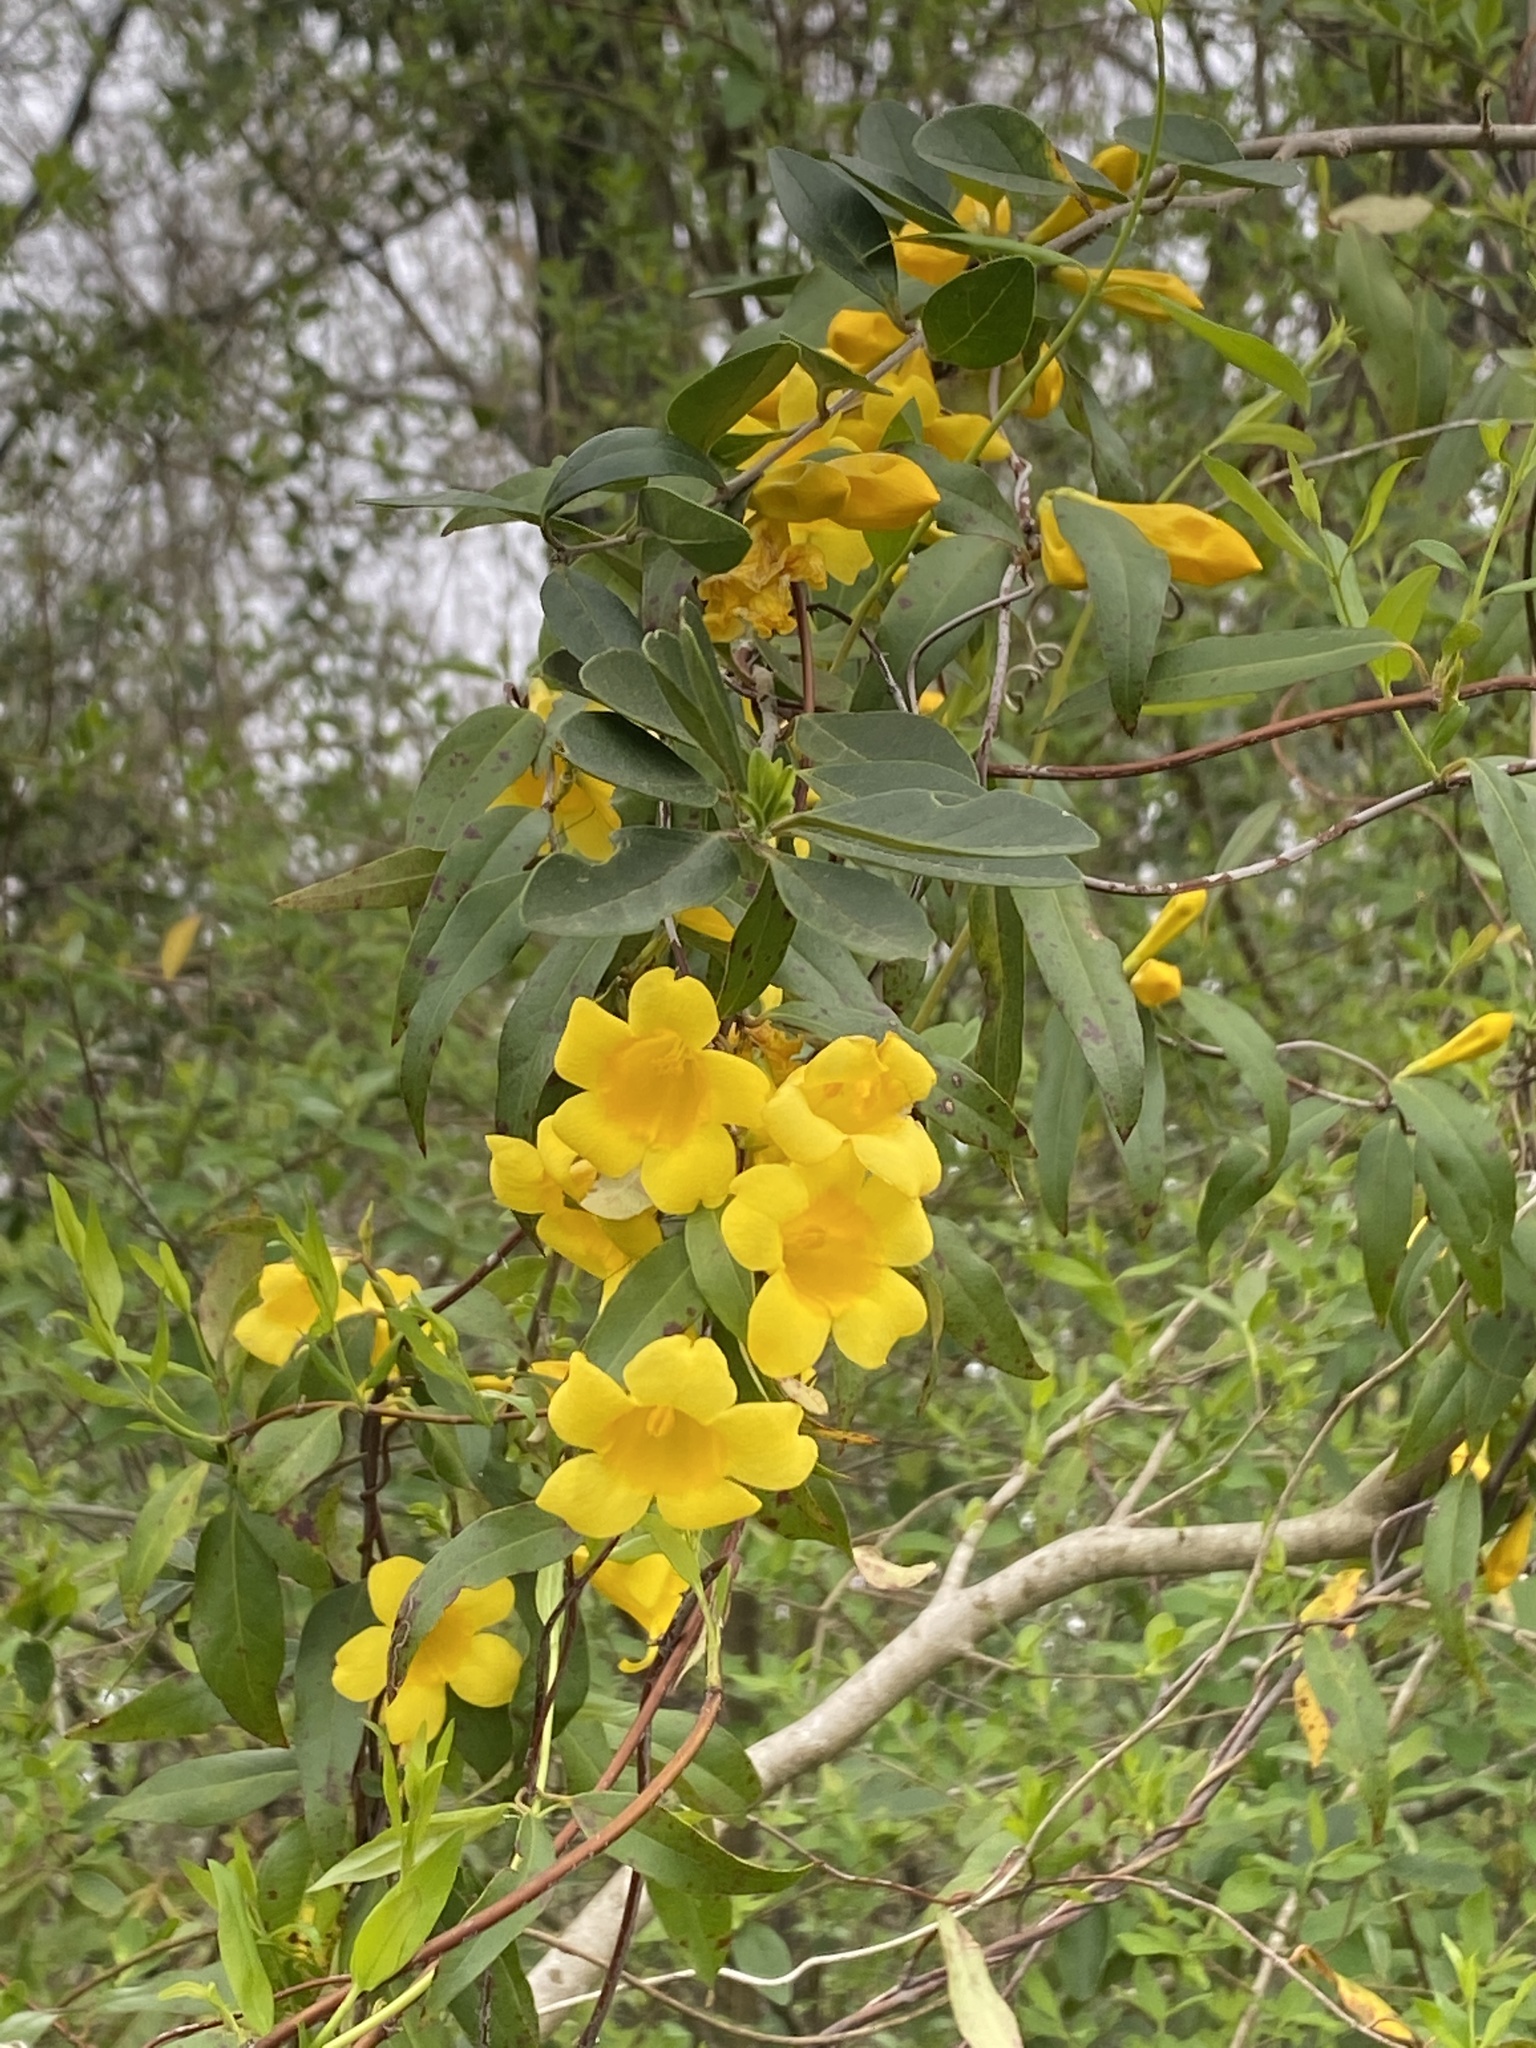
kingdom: Plantae
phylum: Tracheophyta
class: Magnoliopsida
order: Gentianales
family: Gelsemiaceae
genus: Gelsemium
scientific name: Gelsemium sempervirens
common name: Carolina-jasmine
